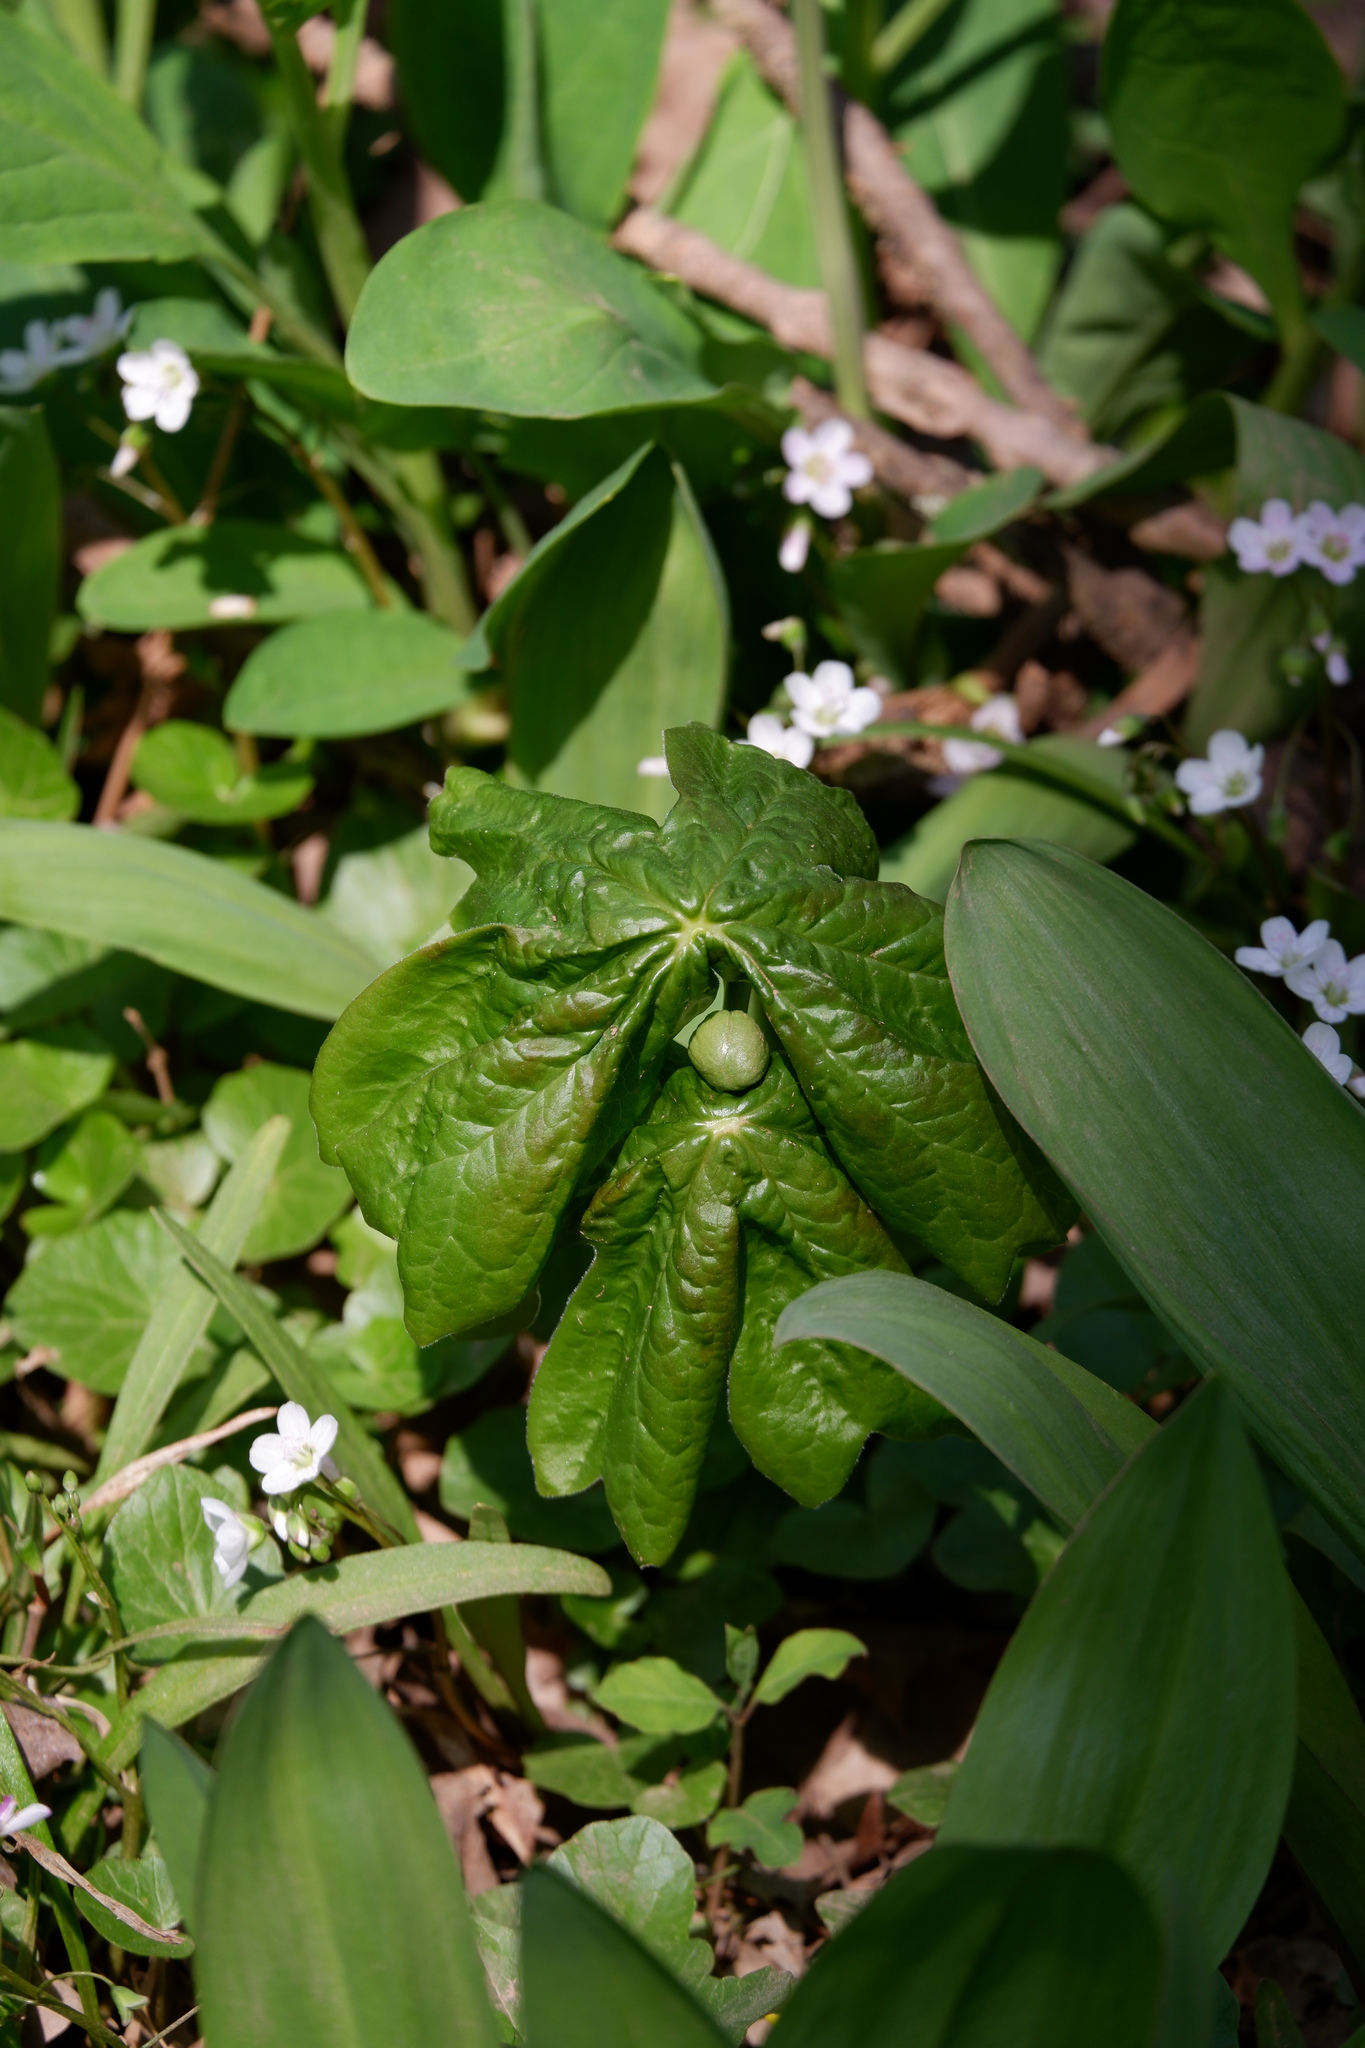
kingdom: Plantae
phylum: Tracheophyta
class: Magnoliopsida
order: Ranunculales
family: Berberidaceae
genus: Podophyllum
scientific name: Podophyllum peltatum
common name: Wild mandrake
